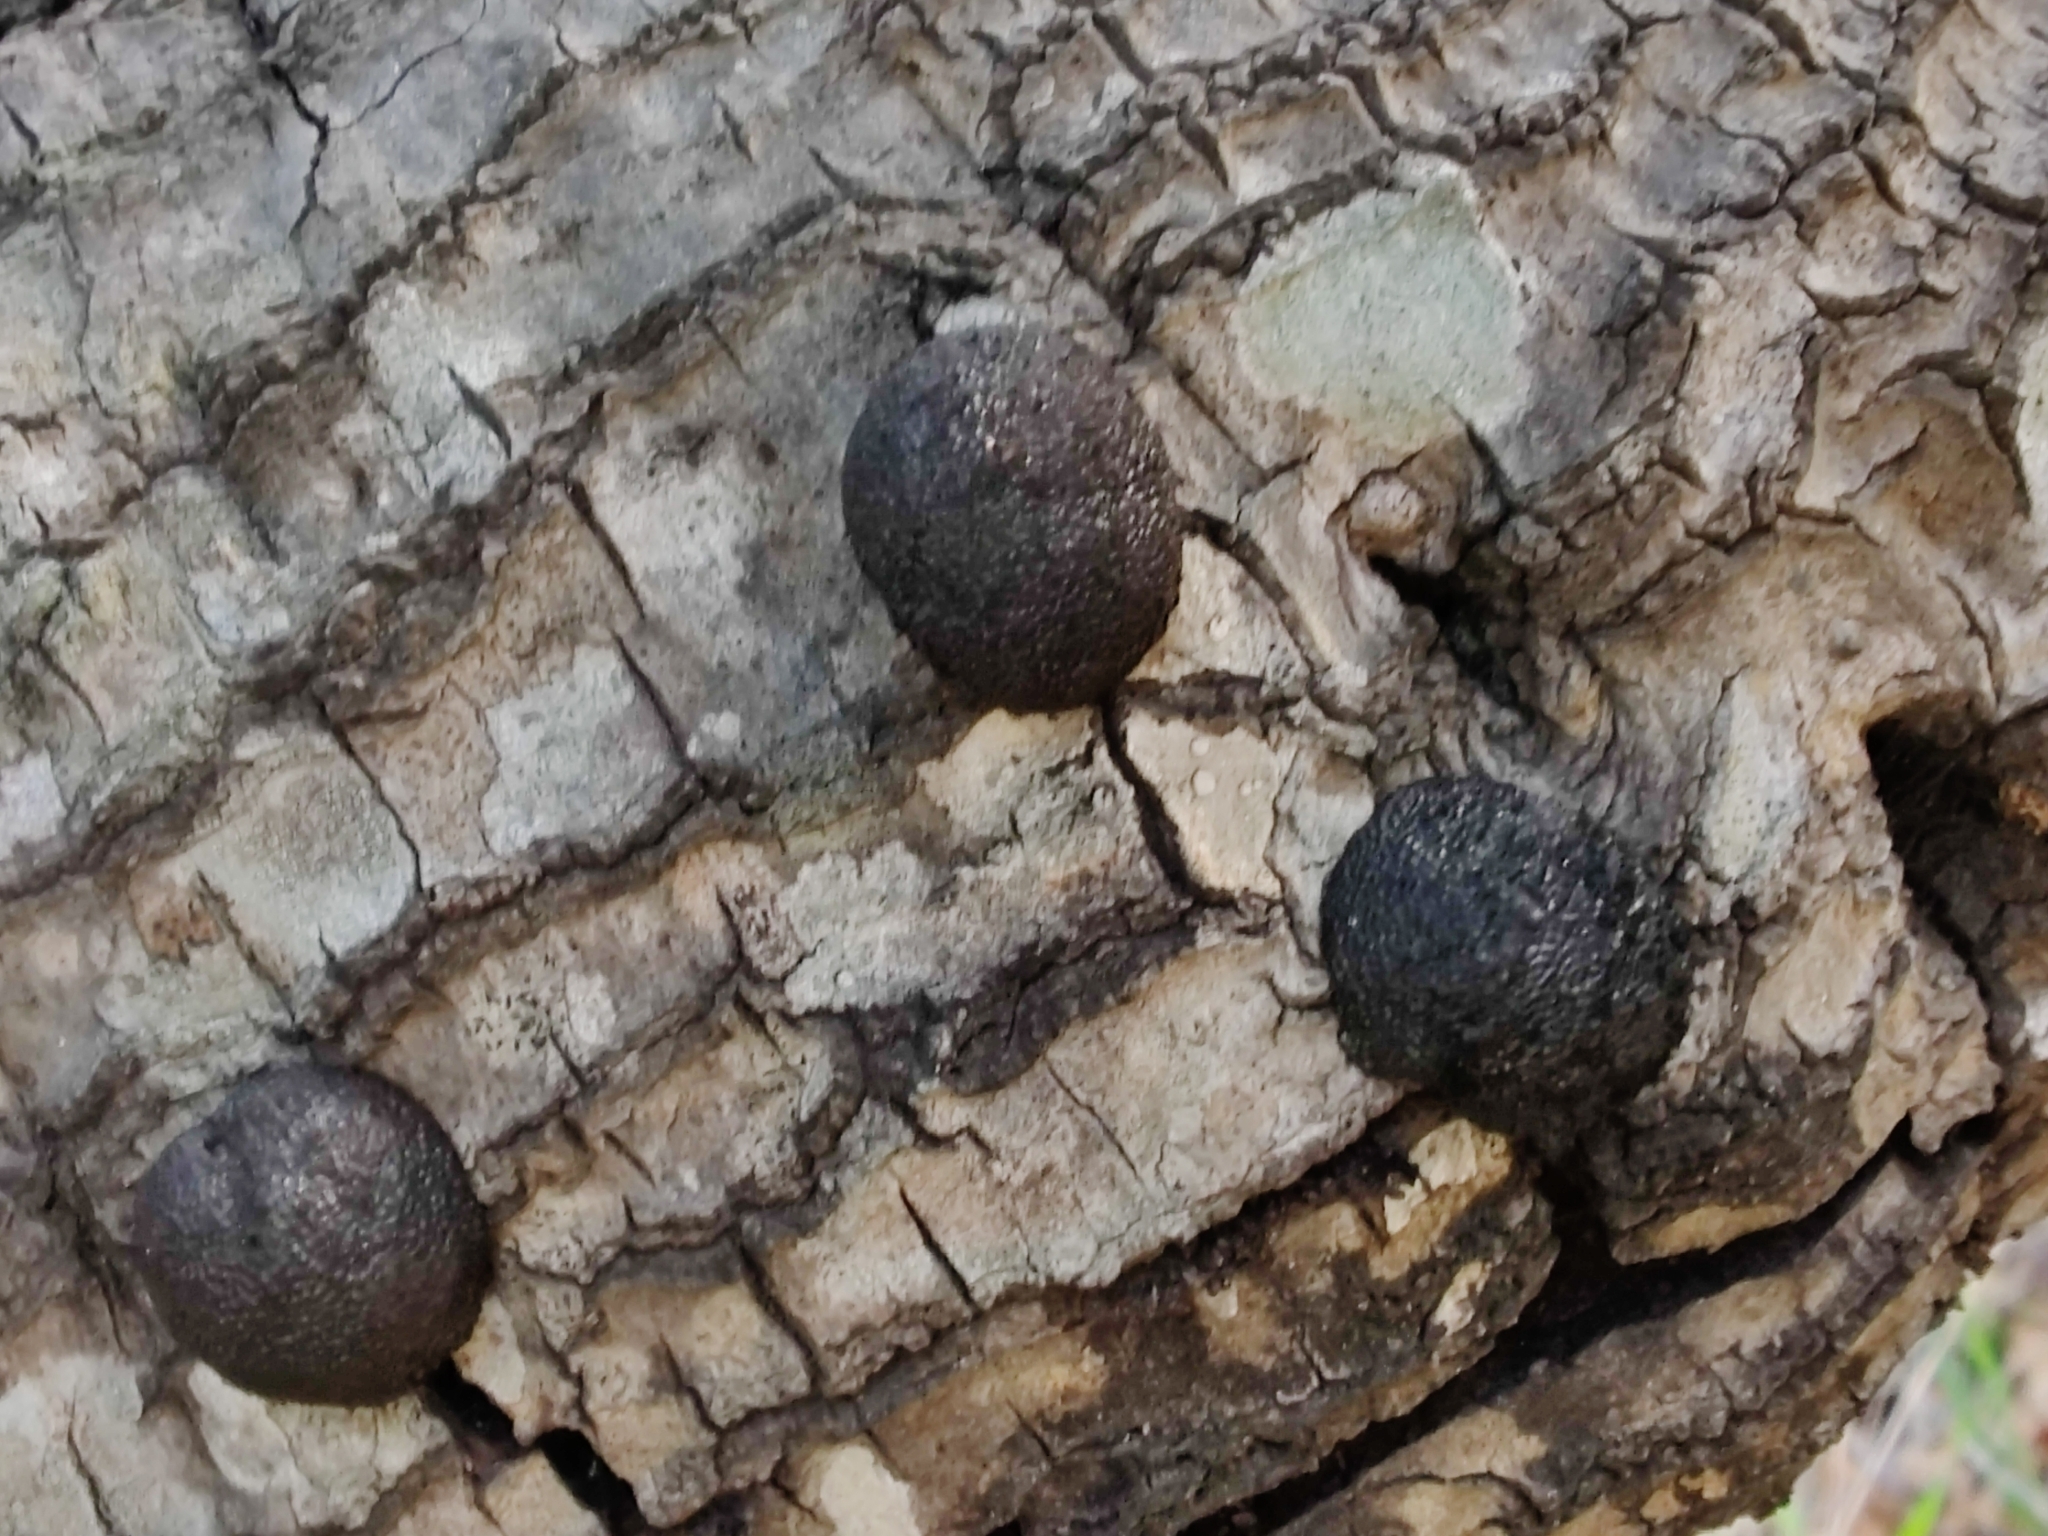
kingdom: Fungi
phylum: Ascomycota
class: Sordariomycetes
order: Xylariales
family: Hypoxylaceae
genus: Annulohypoxylon
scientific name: Annulohypoxylon thouarsianum
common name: Cramp balls
